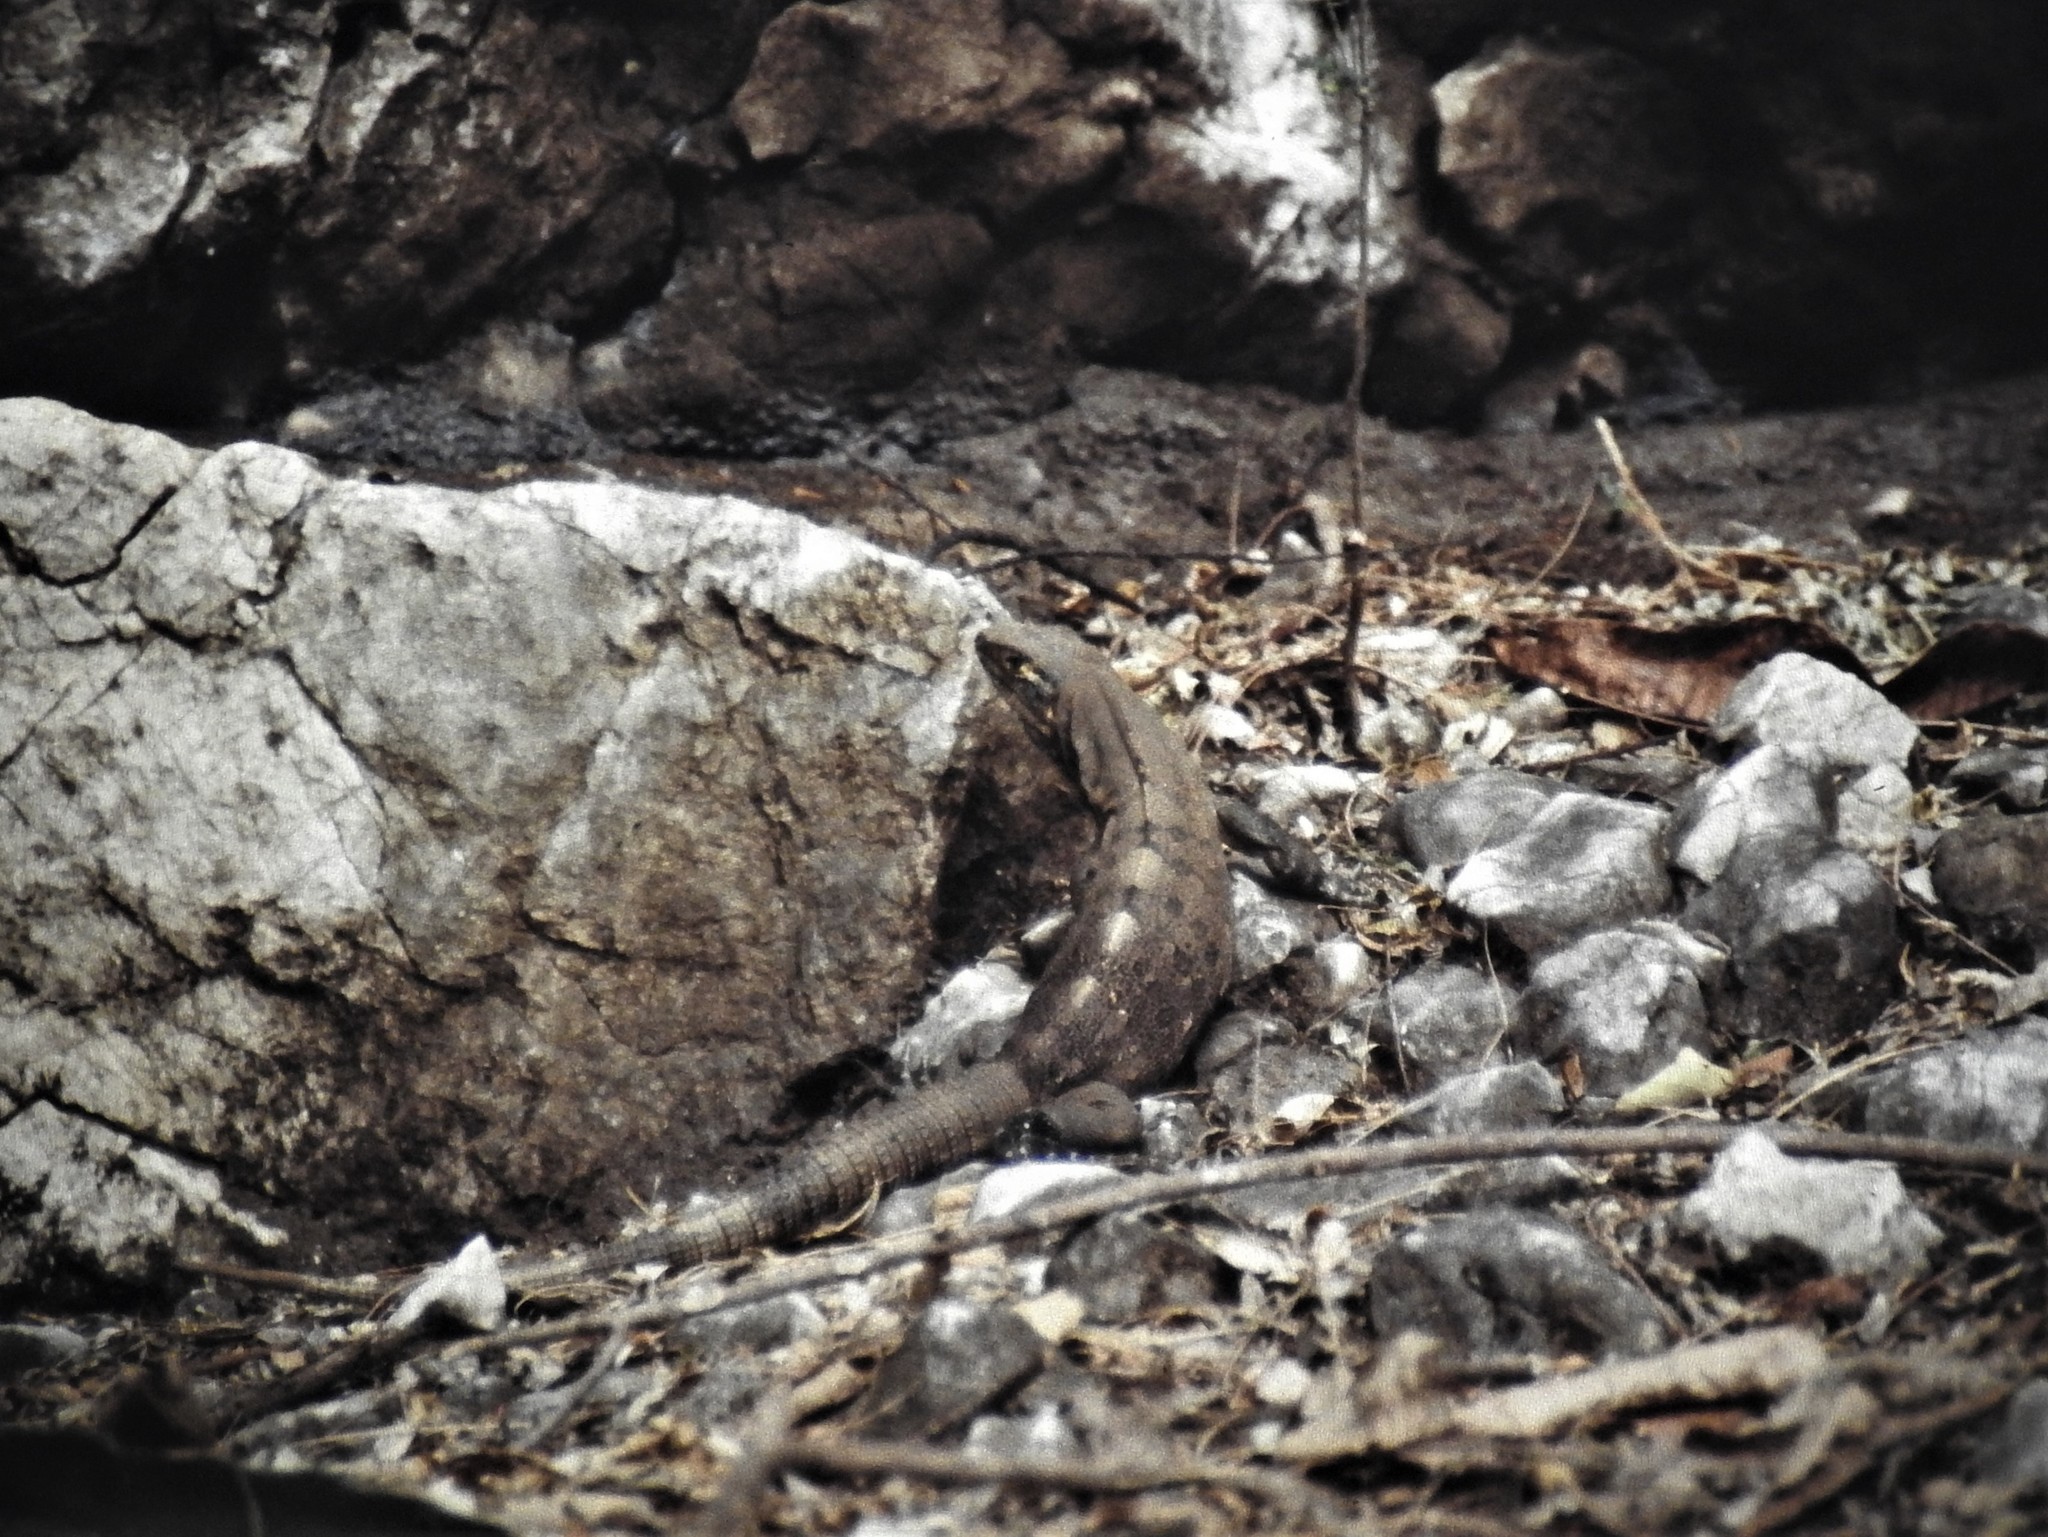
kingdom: Animalia
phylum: Chordata
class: Squamata
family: Iguanidae
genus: Ctenosaura
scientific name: Ctenosaura similis
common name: Black spiny-tailed iguana
